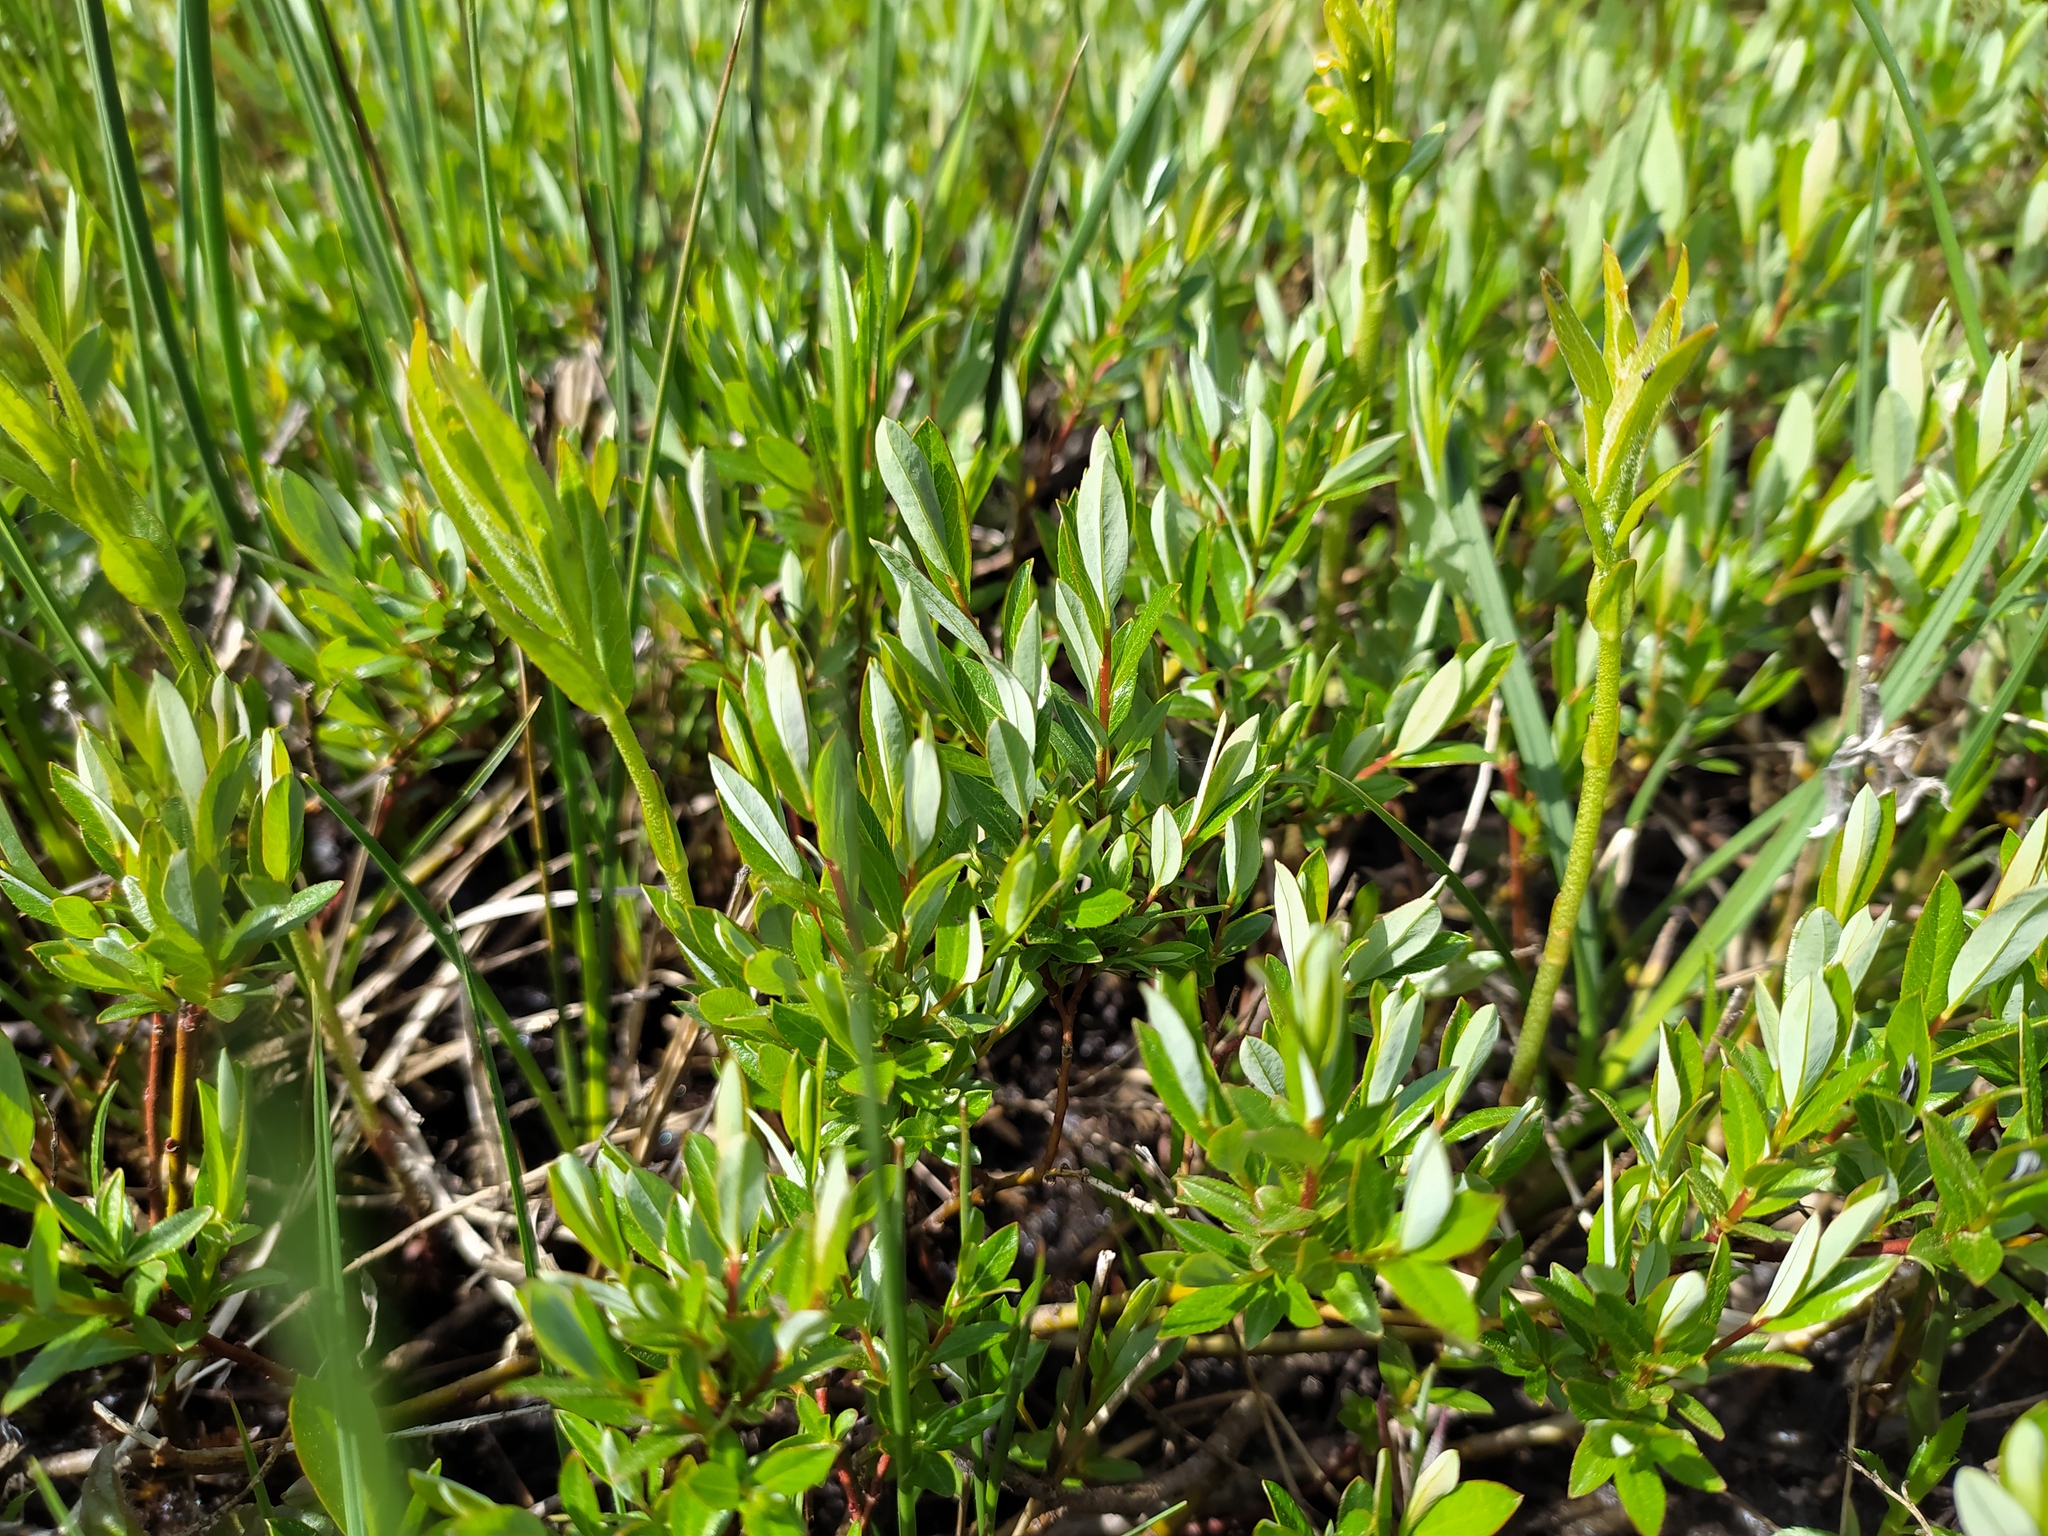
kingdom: Plantae
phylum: Tracheophyta
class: Magnoliopsida
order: Malpighiales
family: Salicaceae
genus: Salix
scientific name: Salix repens
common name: Creeping willow
